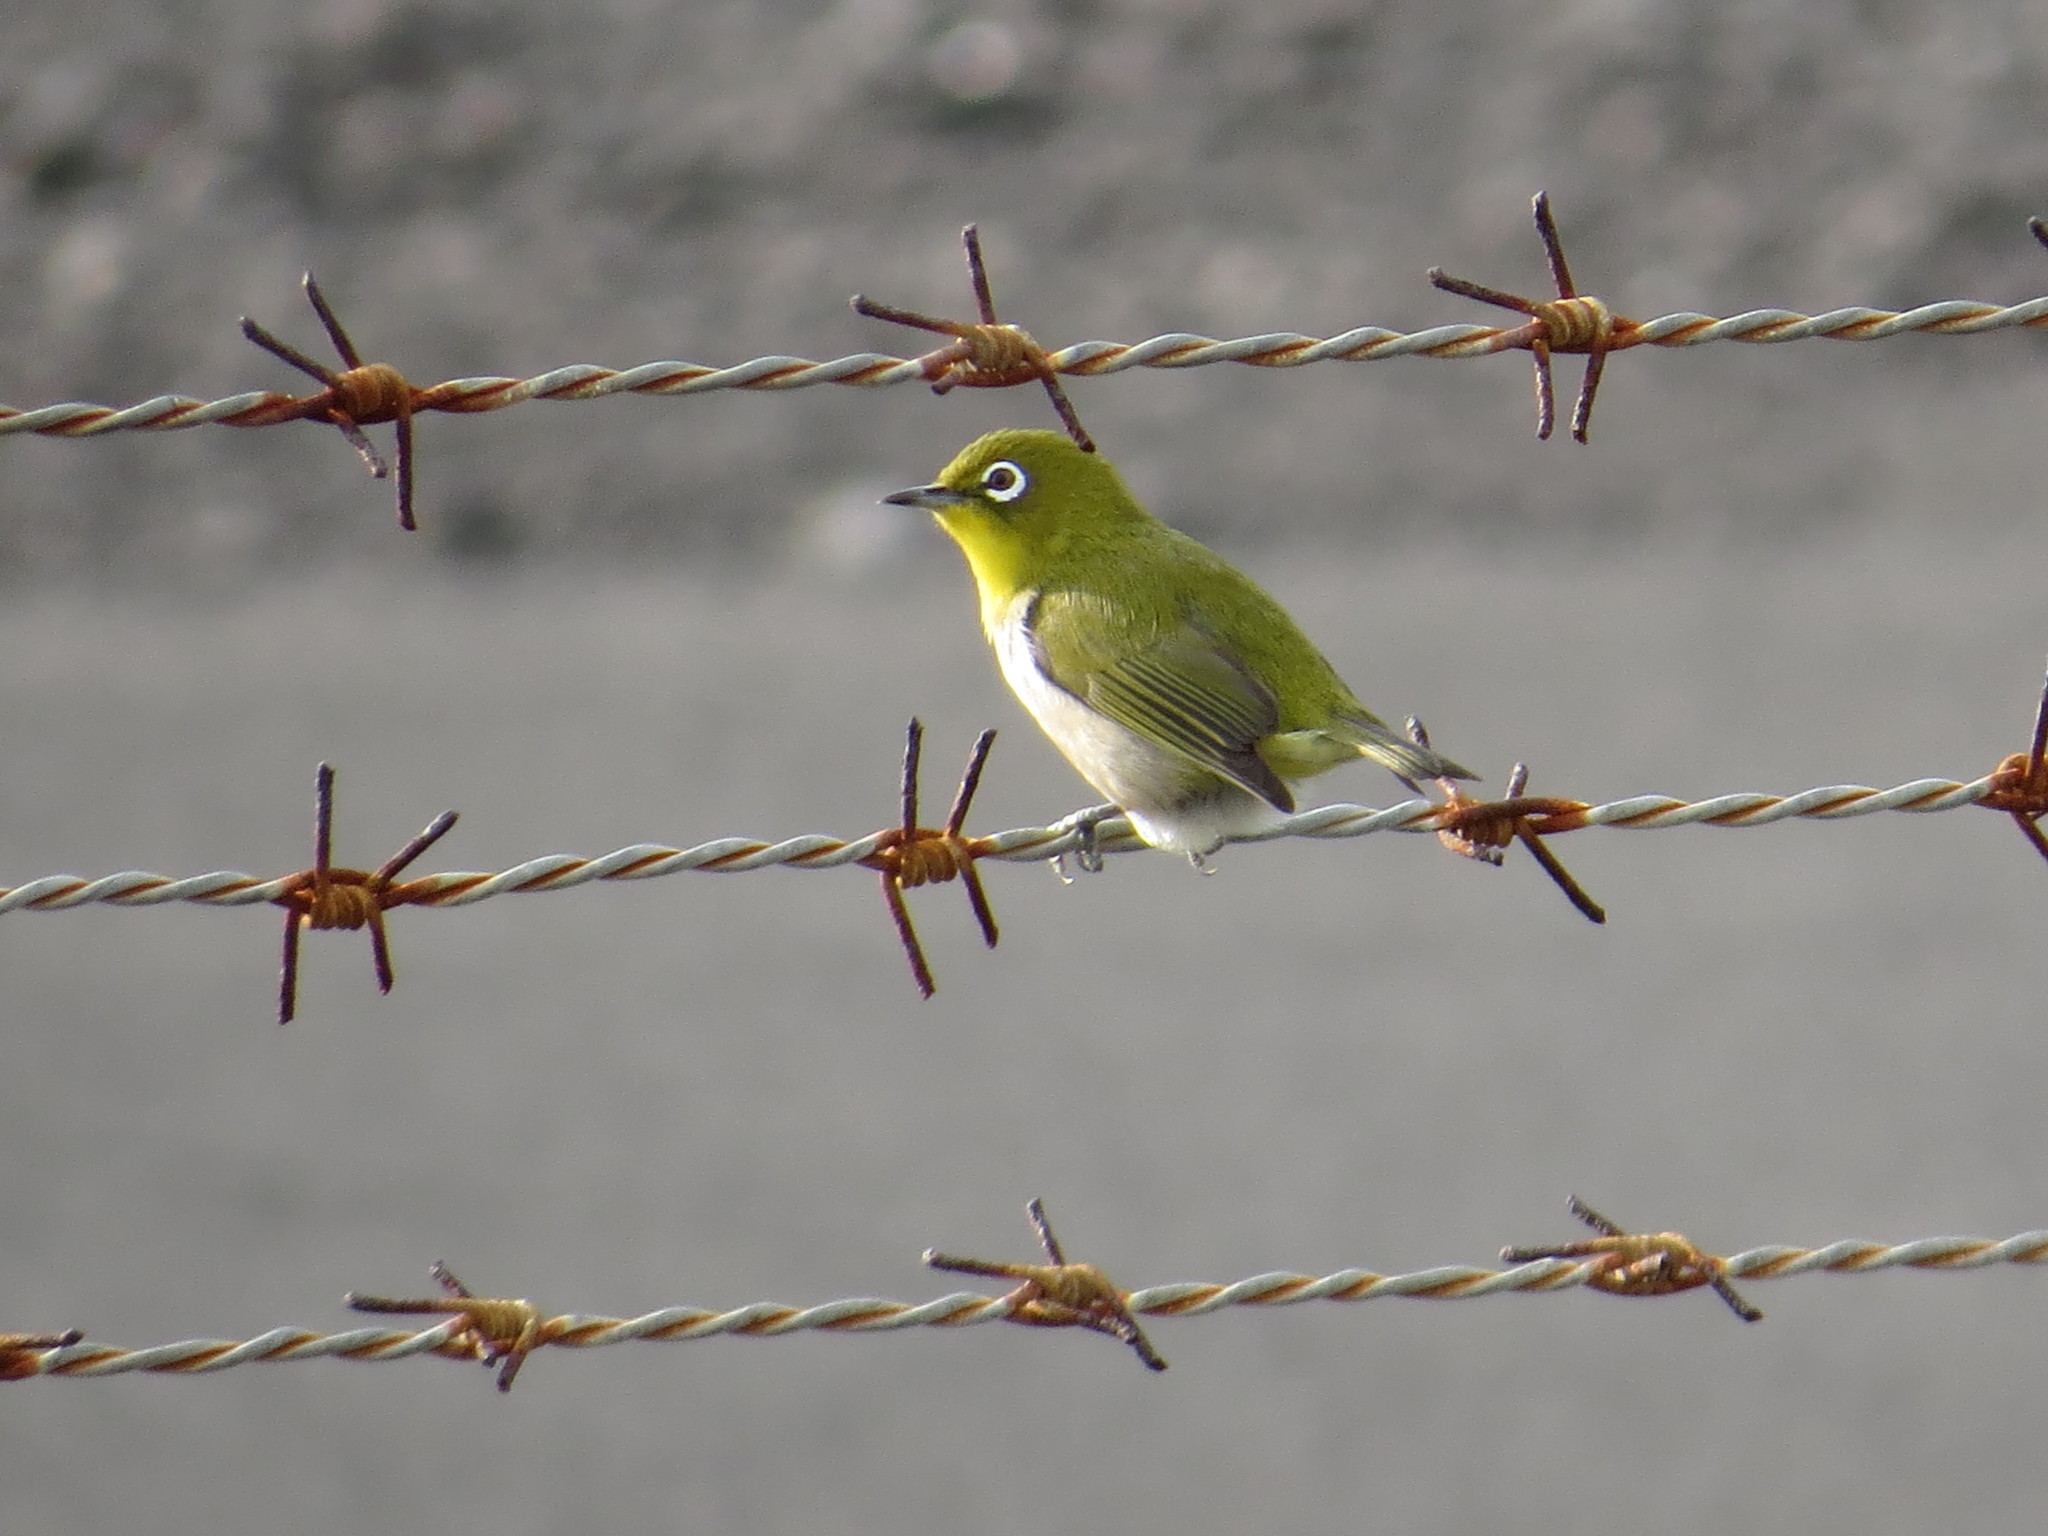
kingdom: Animalia
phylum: Chordata
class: Aves
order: Passeriformes
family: Zosteropidae
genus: Zosterops
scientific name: Zosterops japonicus
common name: Japanese white-eye
